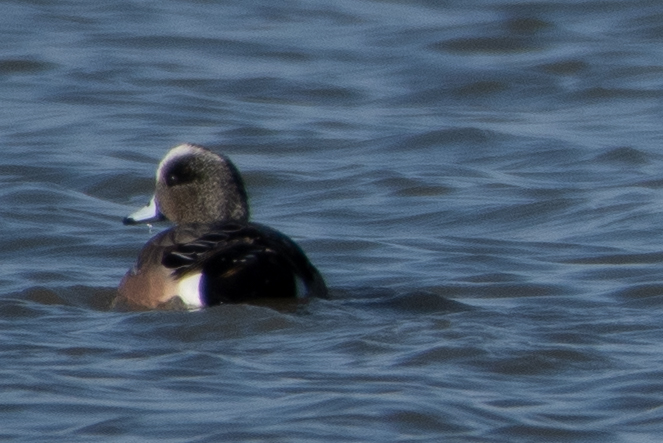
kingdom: Animalia
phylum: Chordata
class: Aves
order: Anseriformes
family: Anatidae
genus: Mareca
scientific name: Mareca americana
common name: American wigeon
